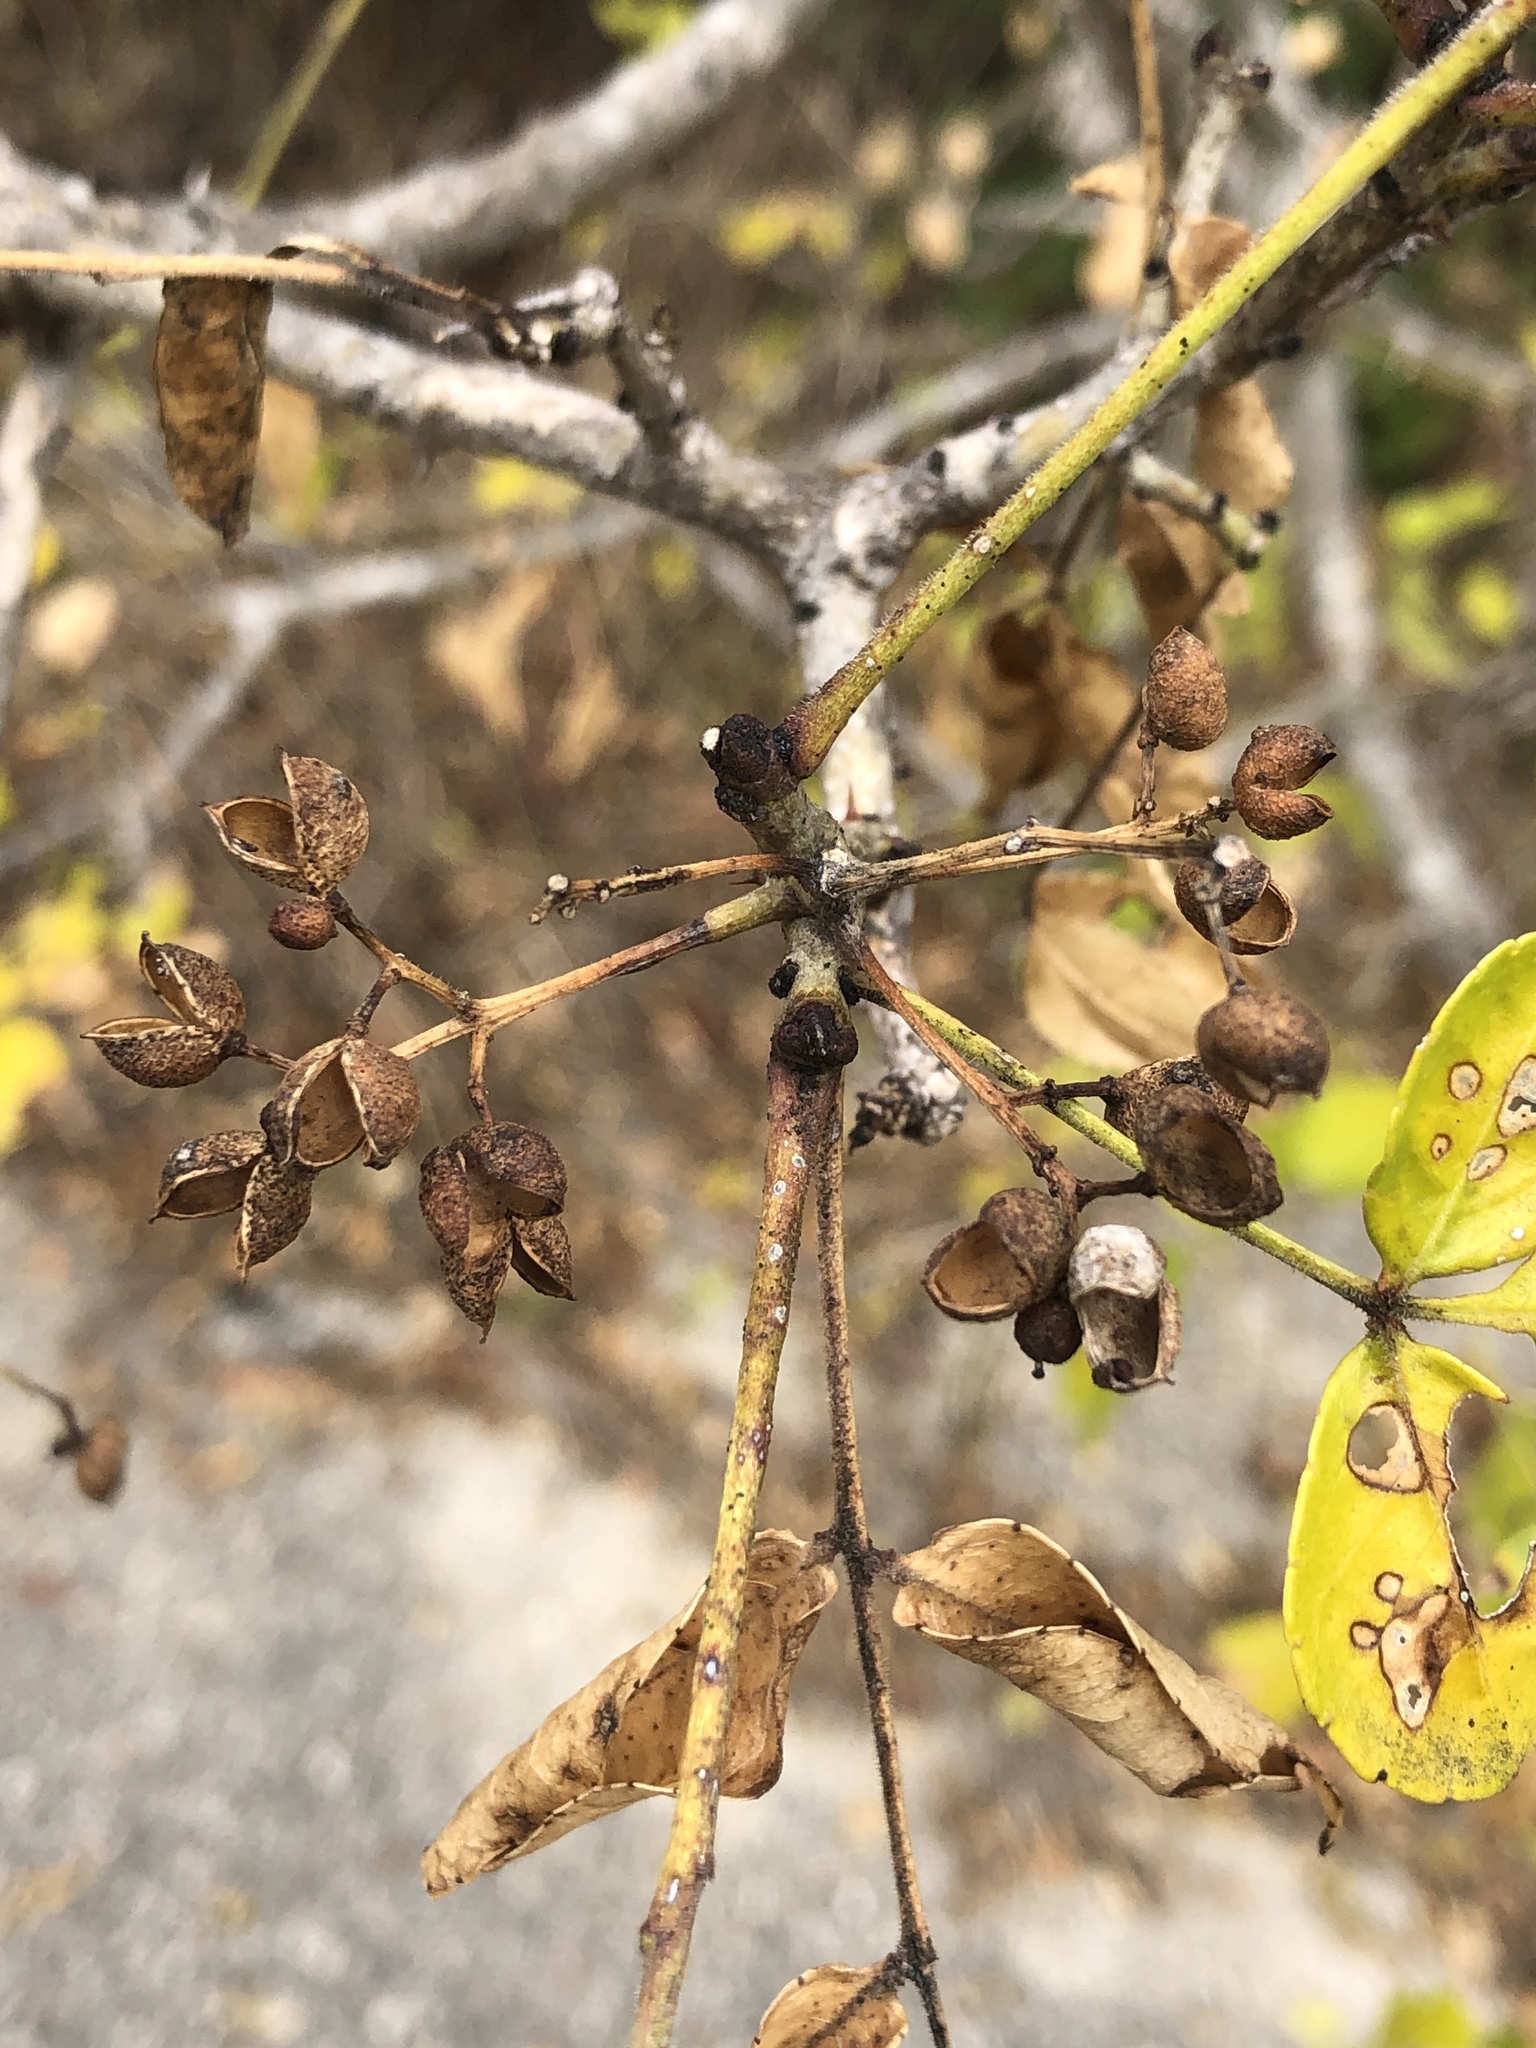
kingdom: Plantae
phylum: Tracheophyta
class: Magnoliopsida
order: Sapindales
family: Rutaceae
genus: Zanthoxylum
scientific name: Zanthoxylum clava-herculis
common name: Hercules'-club
